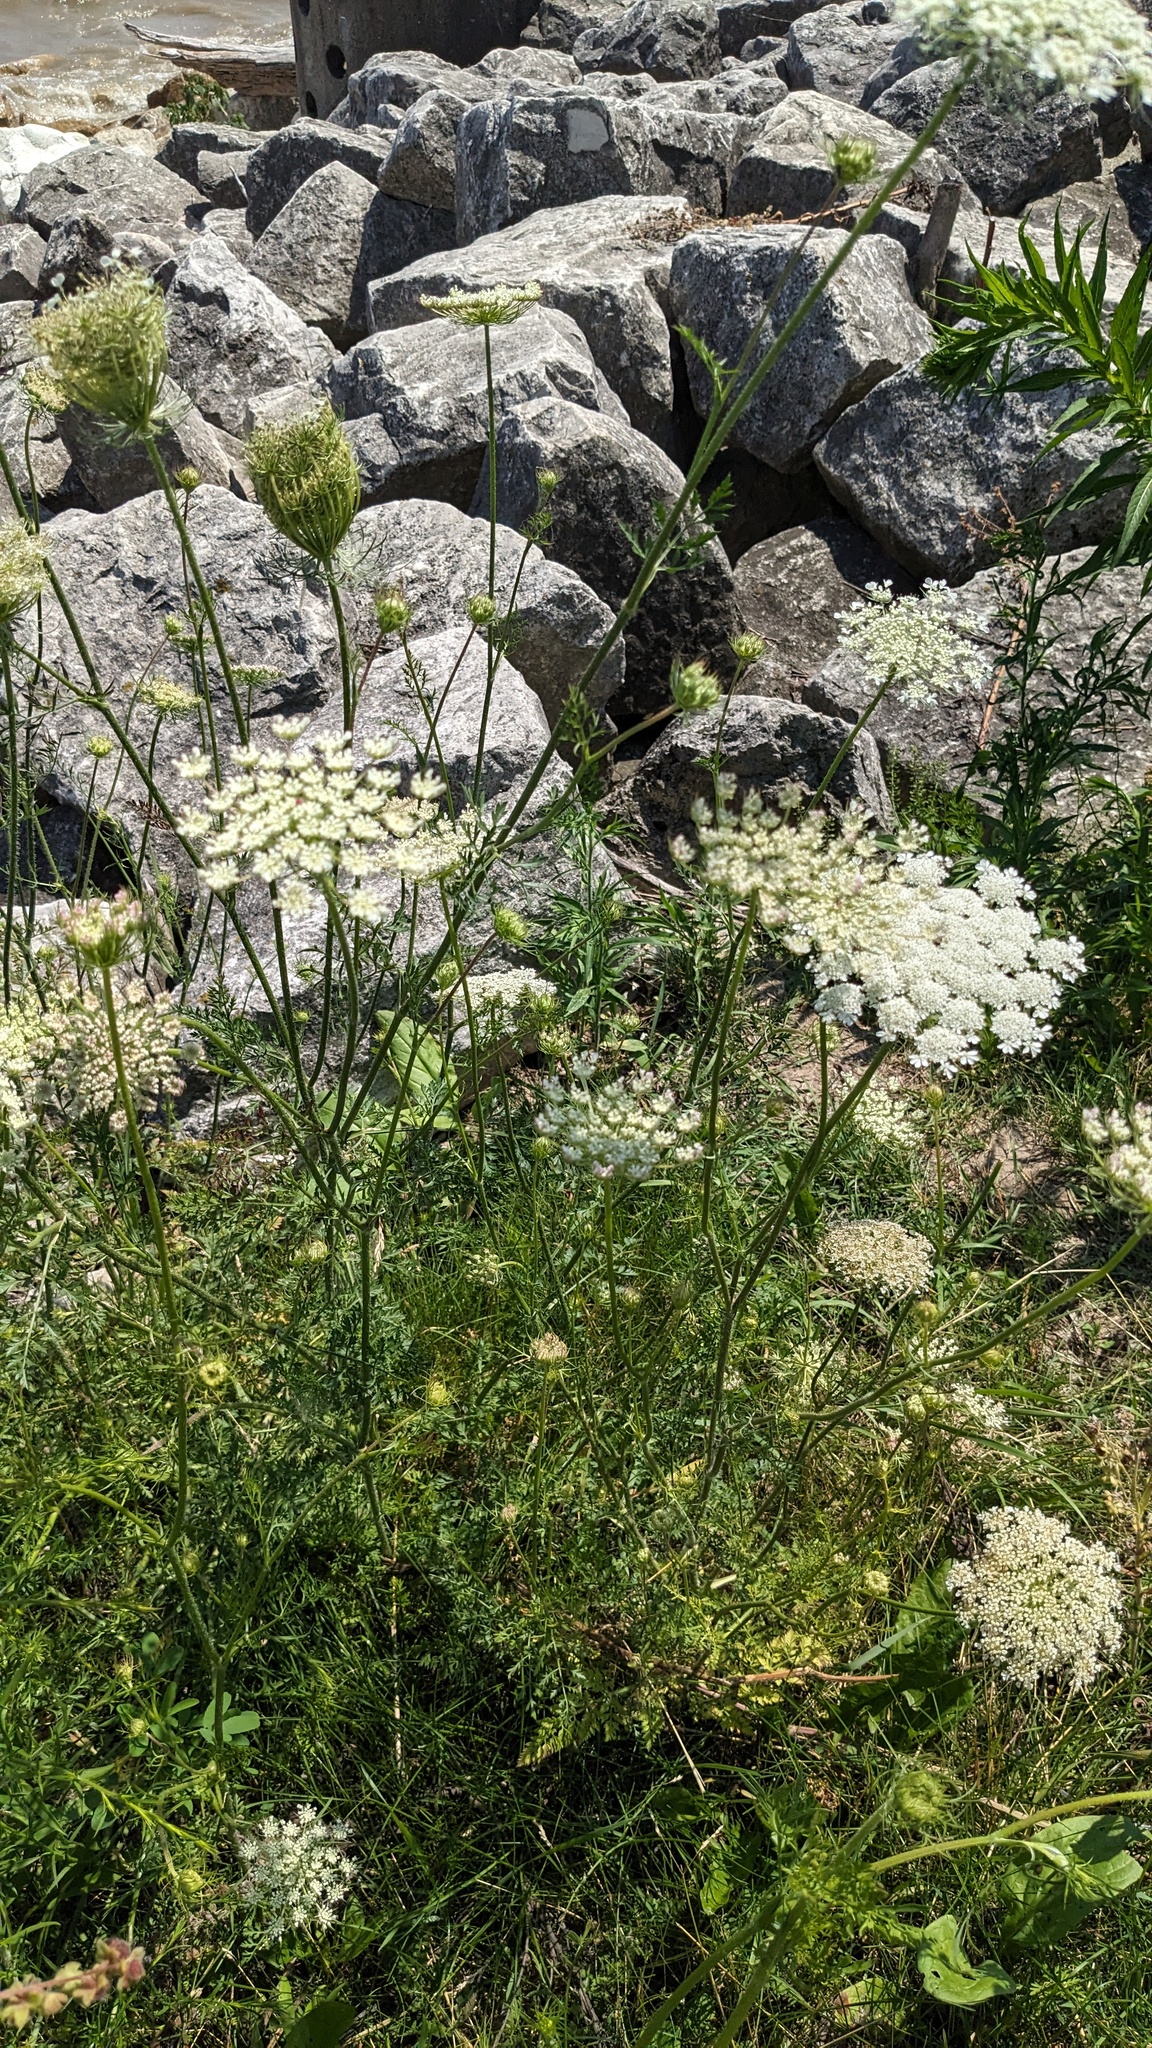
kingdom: Plantae
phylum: Tracheophyta
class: Magnoliopsida
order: Apiales
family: Apiaceae
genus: Daucus
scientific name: Daucus carota
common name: Wild carrot
